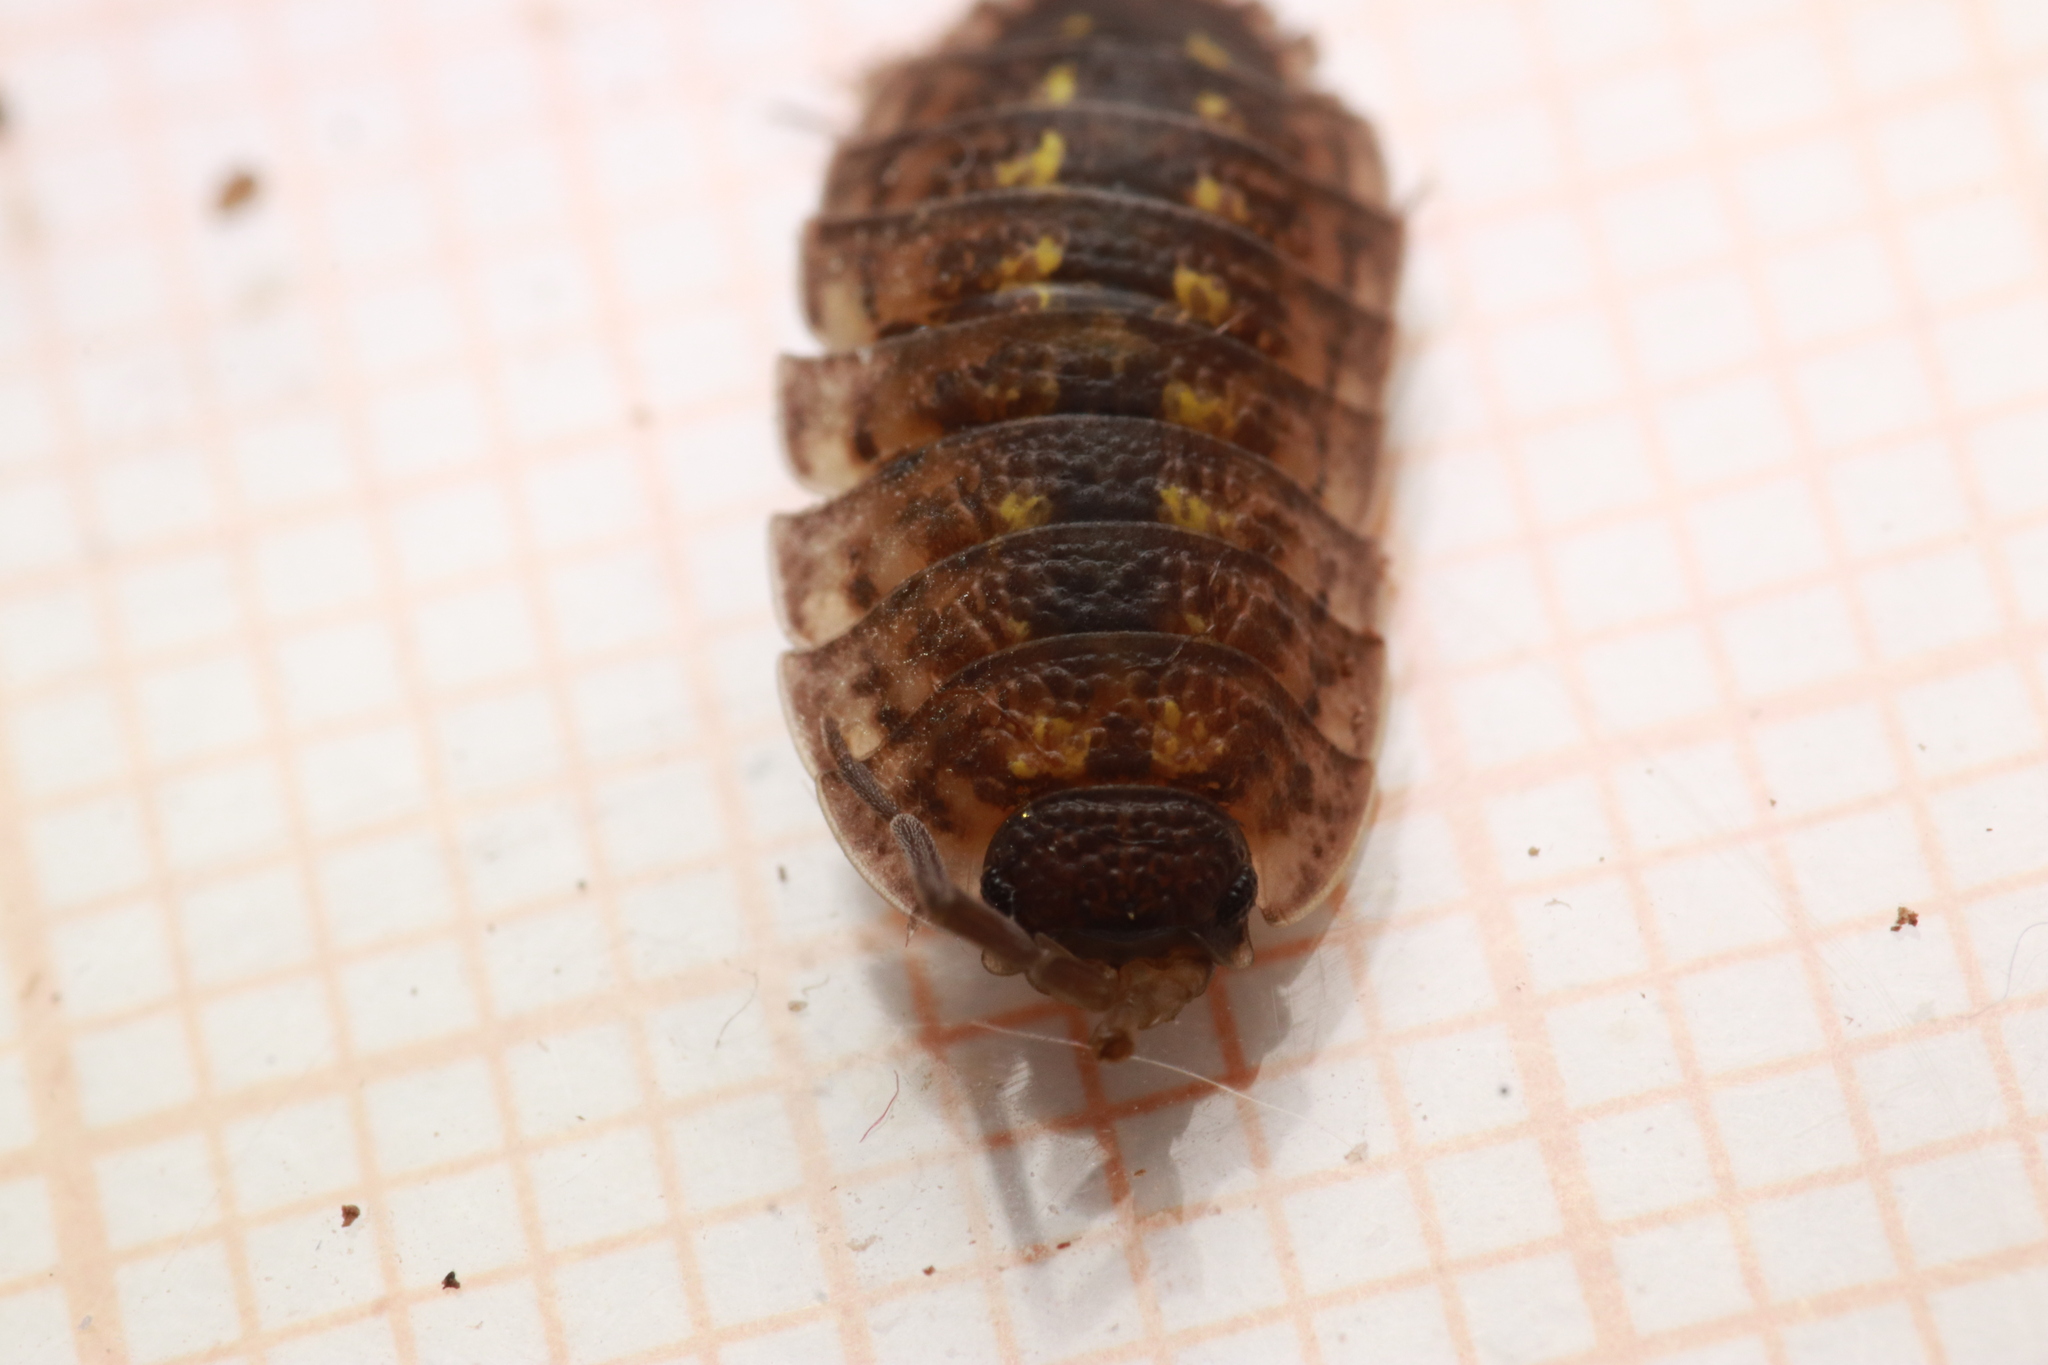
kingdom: Animalia
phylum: Arthropoda
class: Malacostraca
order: Isopoda
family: Porcellionidae
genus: Porcellio
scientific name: Porcellio spinicornis
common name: Painted woodlouse
